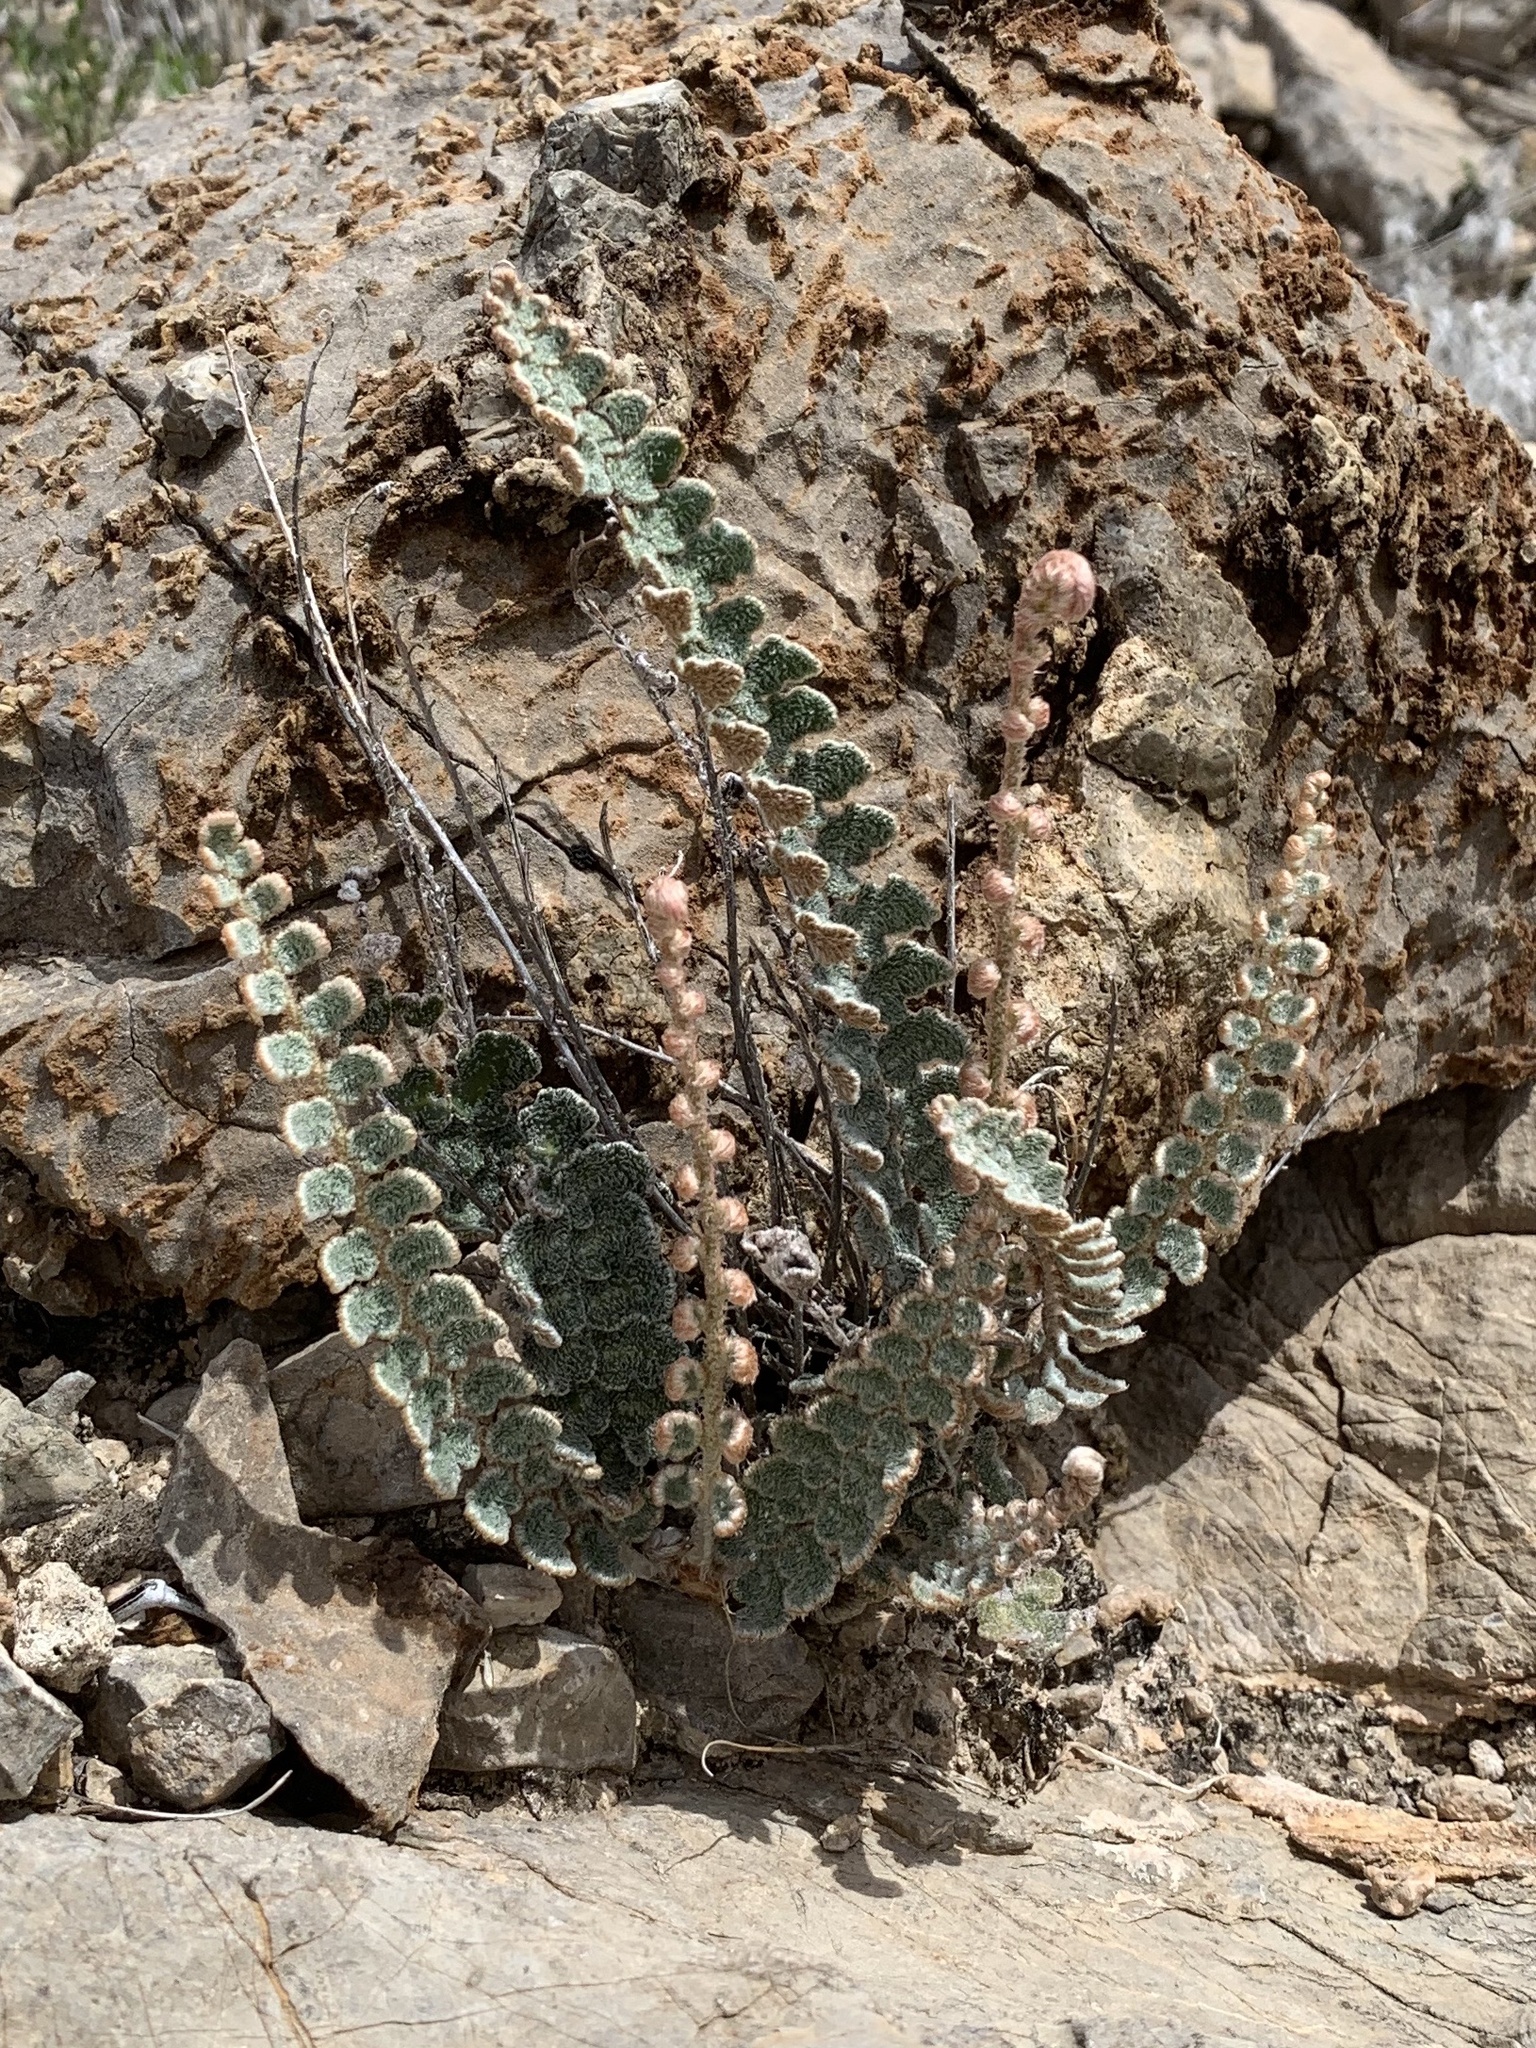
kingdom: Plantae
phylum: Tracheophyta
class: Polypodiopsida
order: Polypodiales
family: Pteridaceae
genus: Astrolepis
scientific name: Astrolepis integerrima
